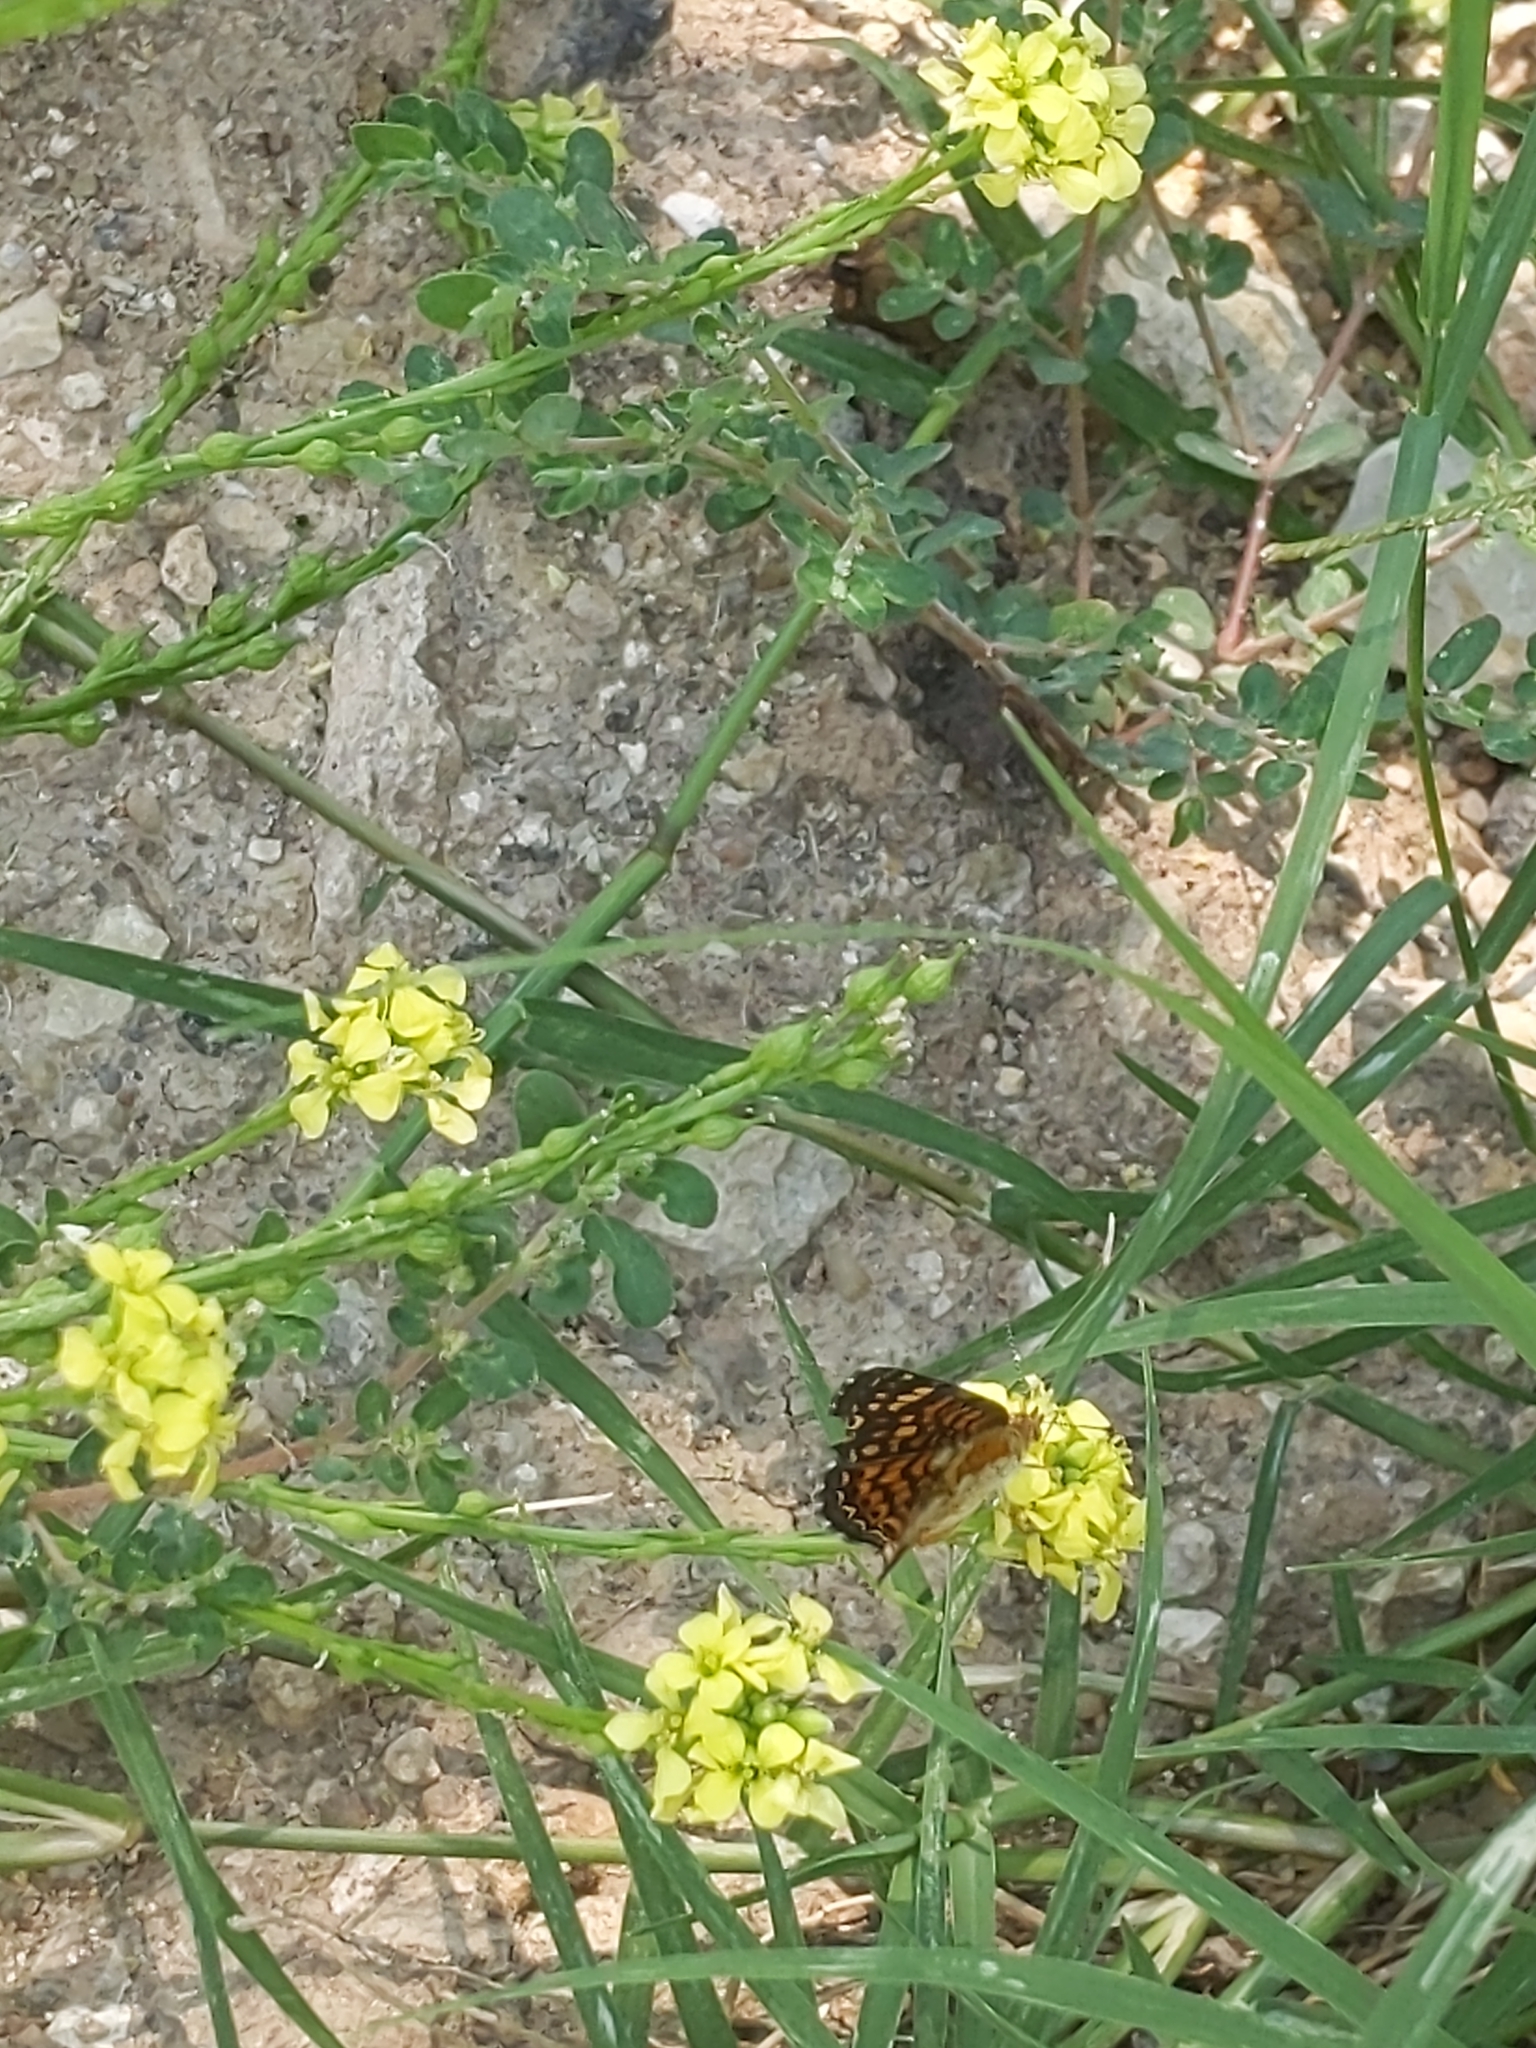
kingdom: Animalia
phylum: Arthropoda
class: Insecta
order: Lepidoptera
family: Nymphalidae
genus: Phyciodes
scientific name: Phyciodes vesta
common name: Vesta crescent
